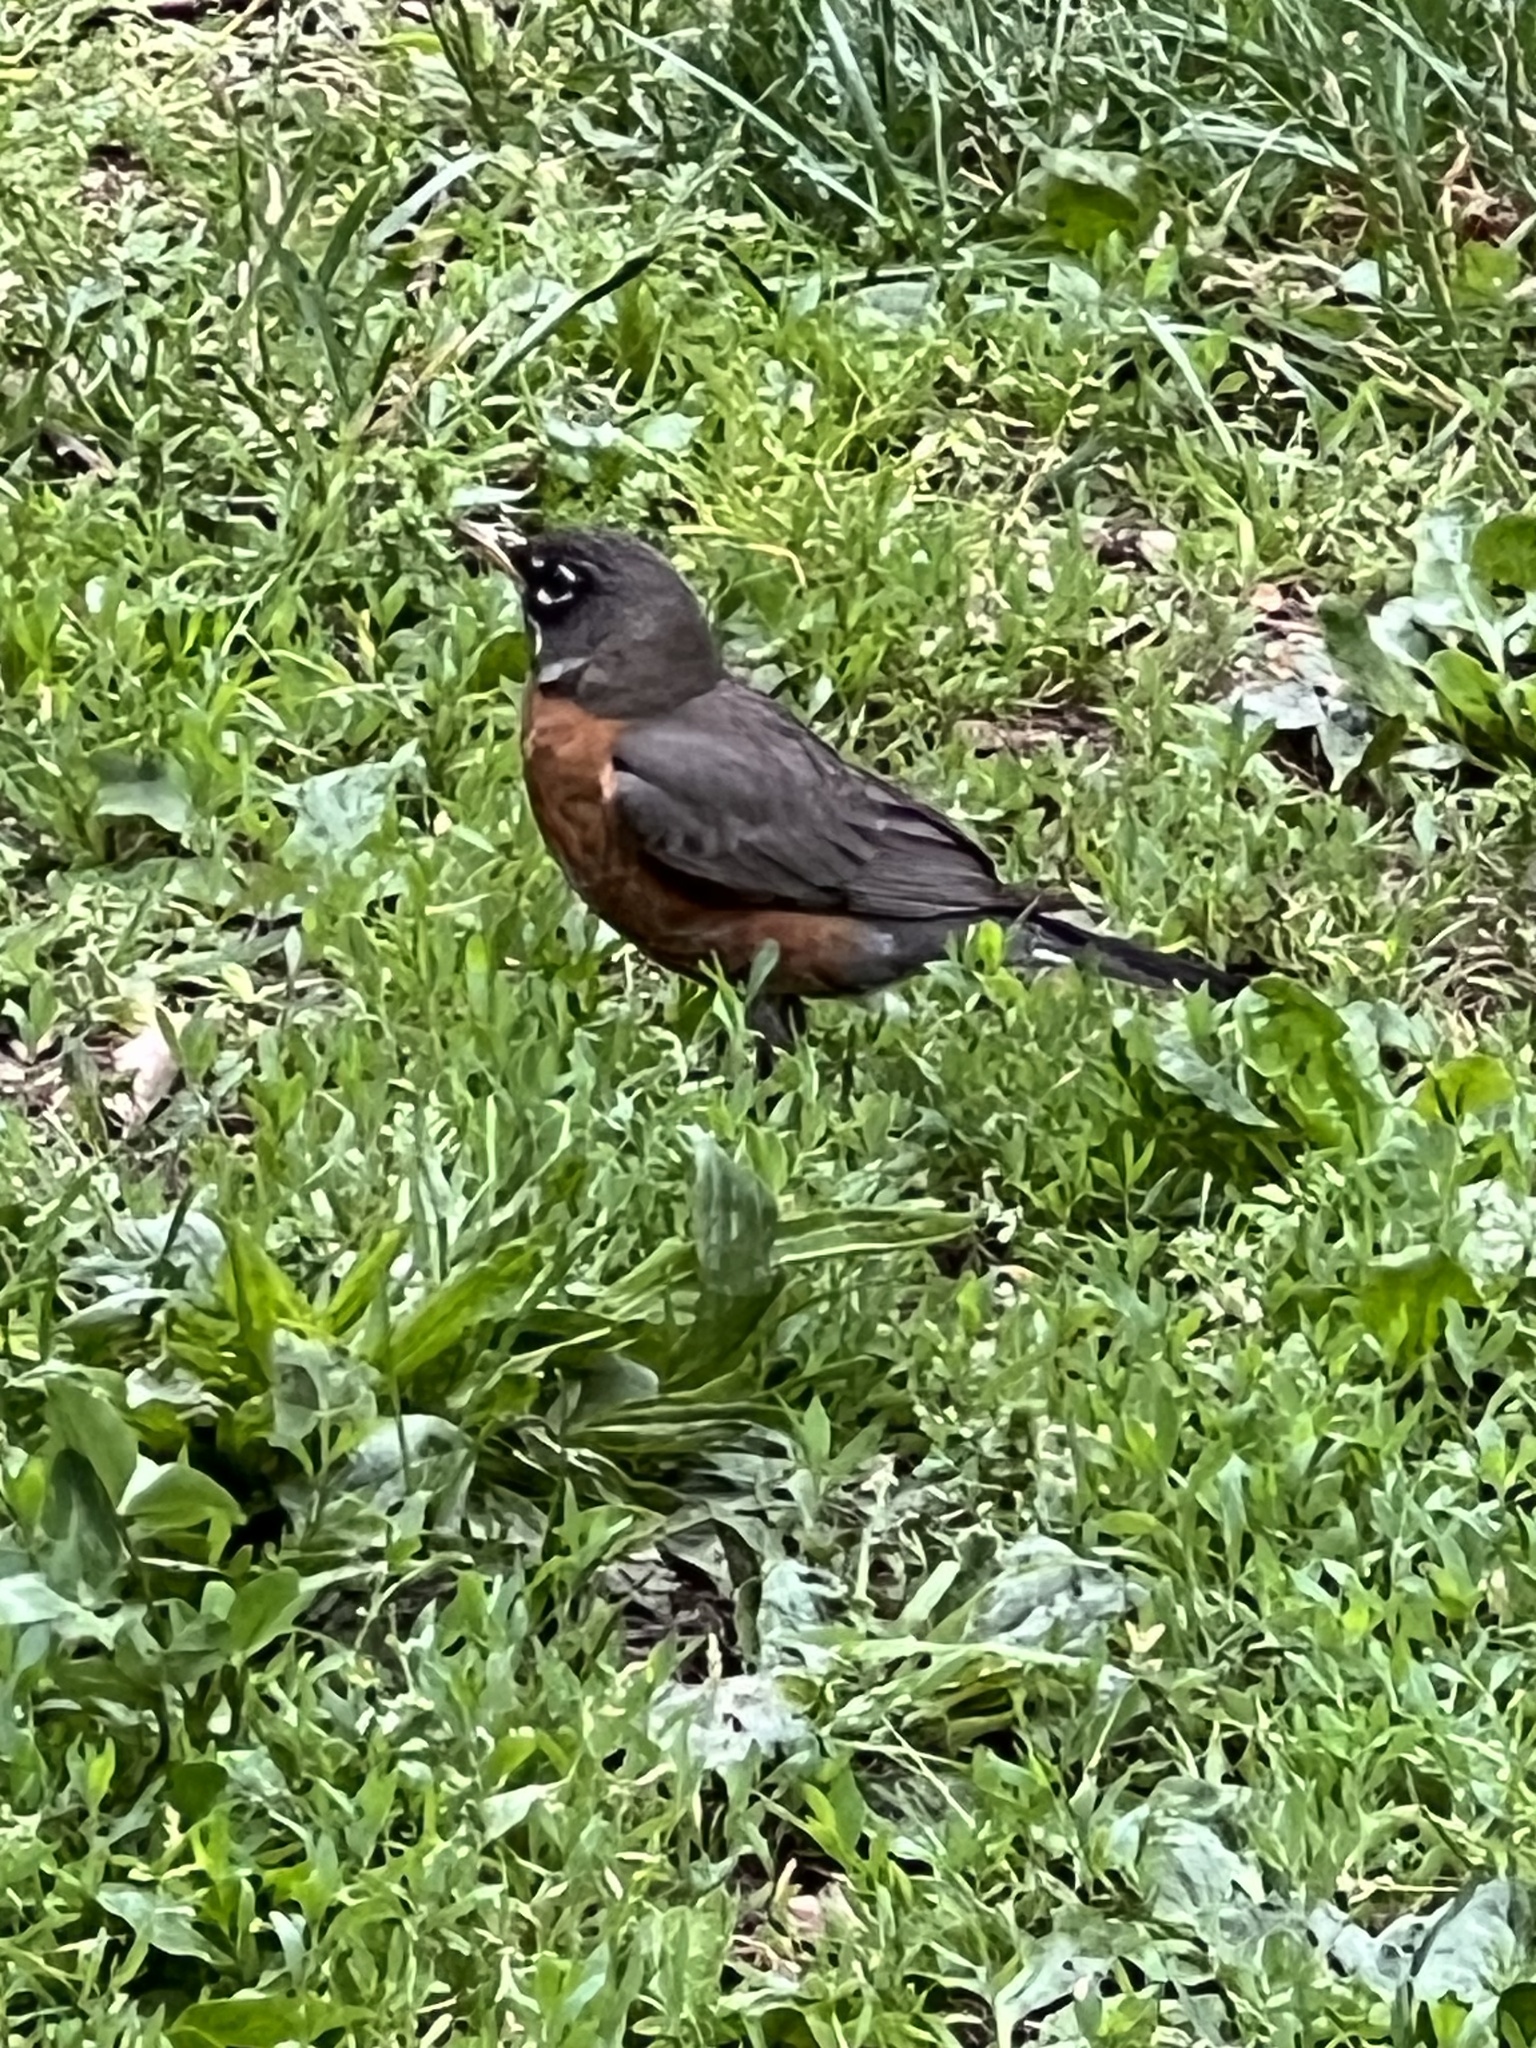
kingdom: Animalia
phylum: Chordata
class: Aves
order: Passeriformes
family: Turdidae
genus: Turdus
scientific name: Turdus migratorius
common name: American robin
